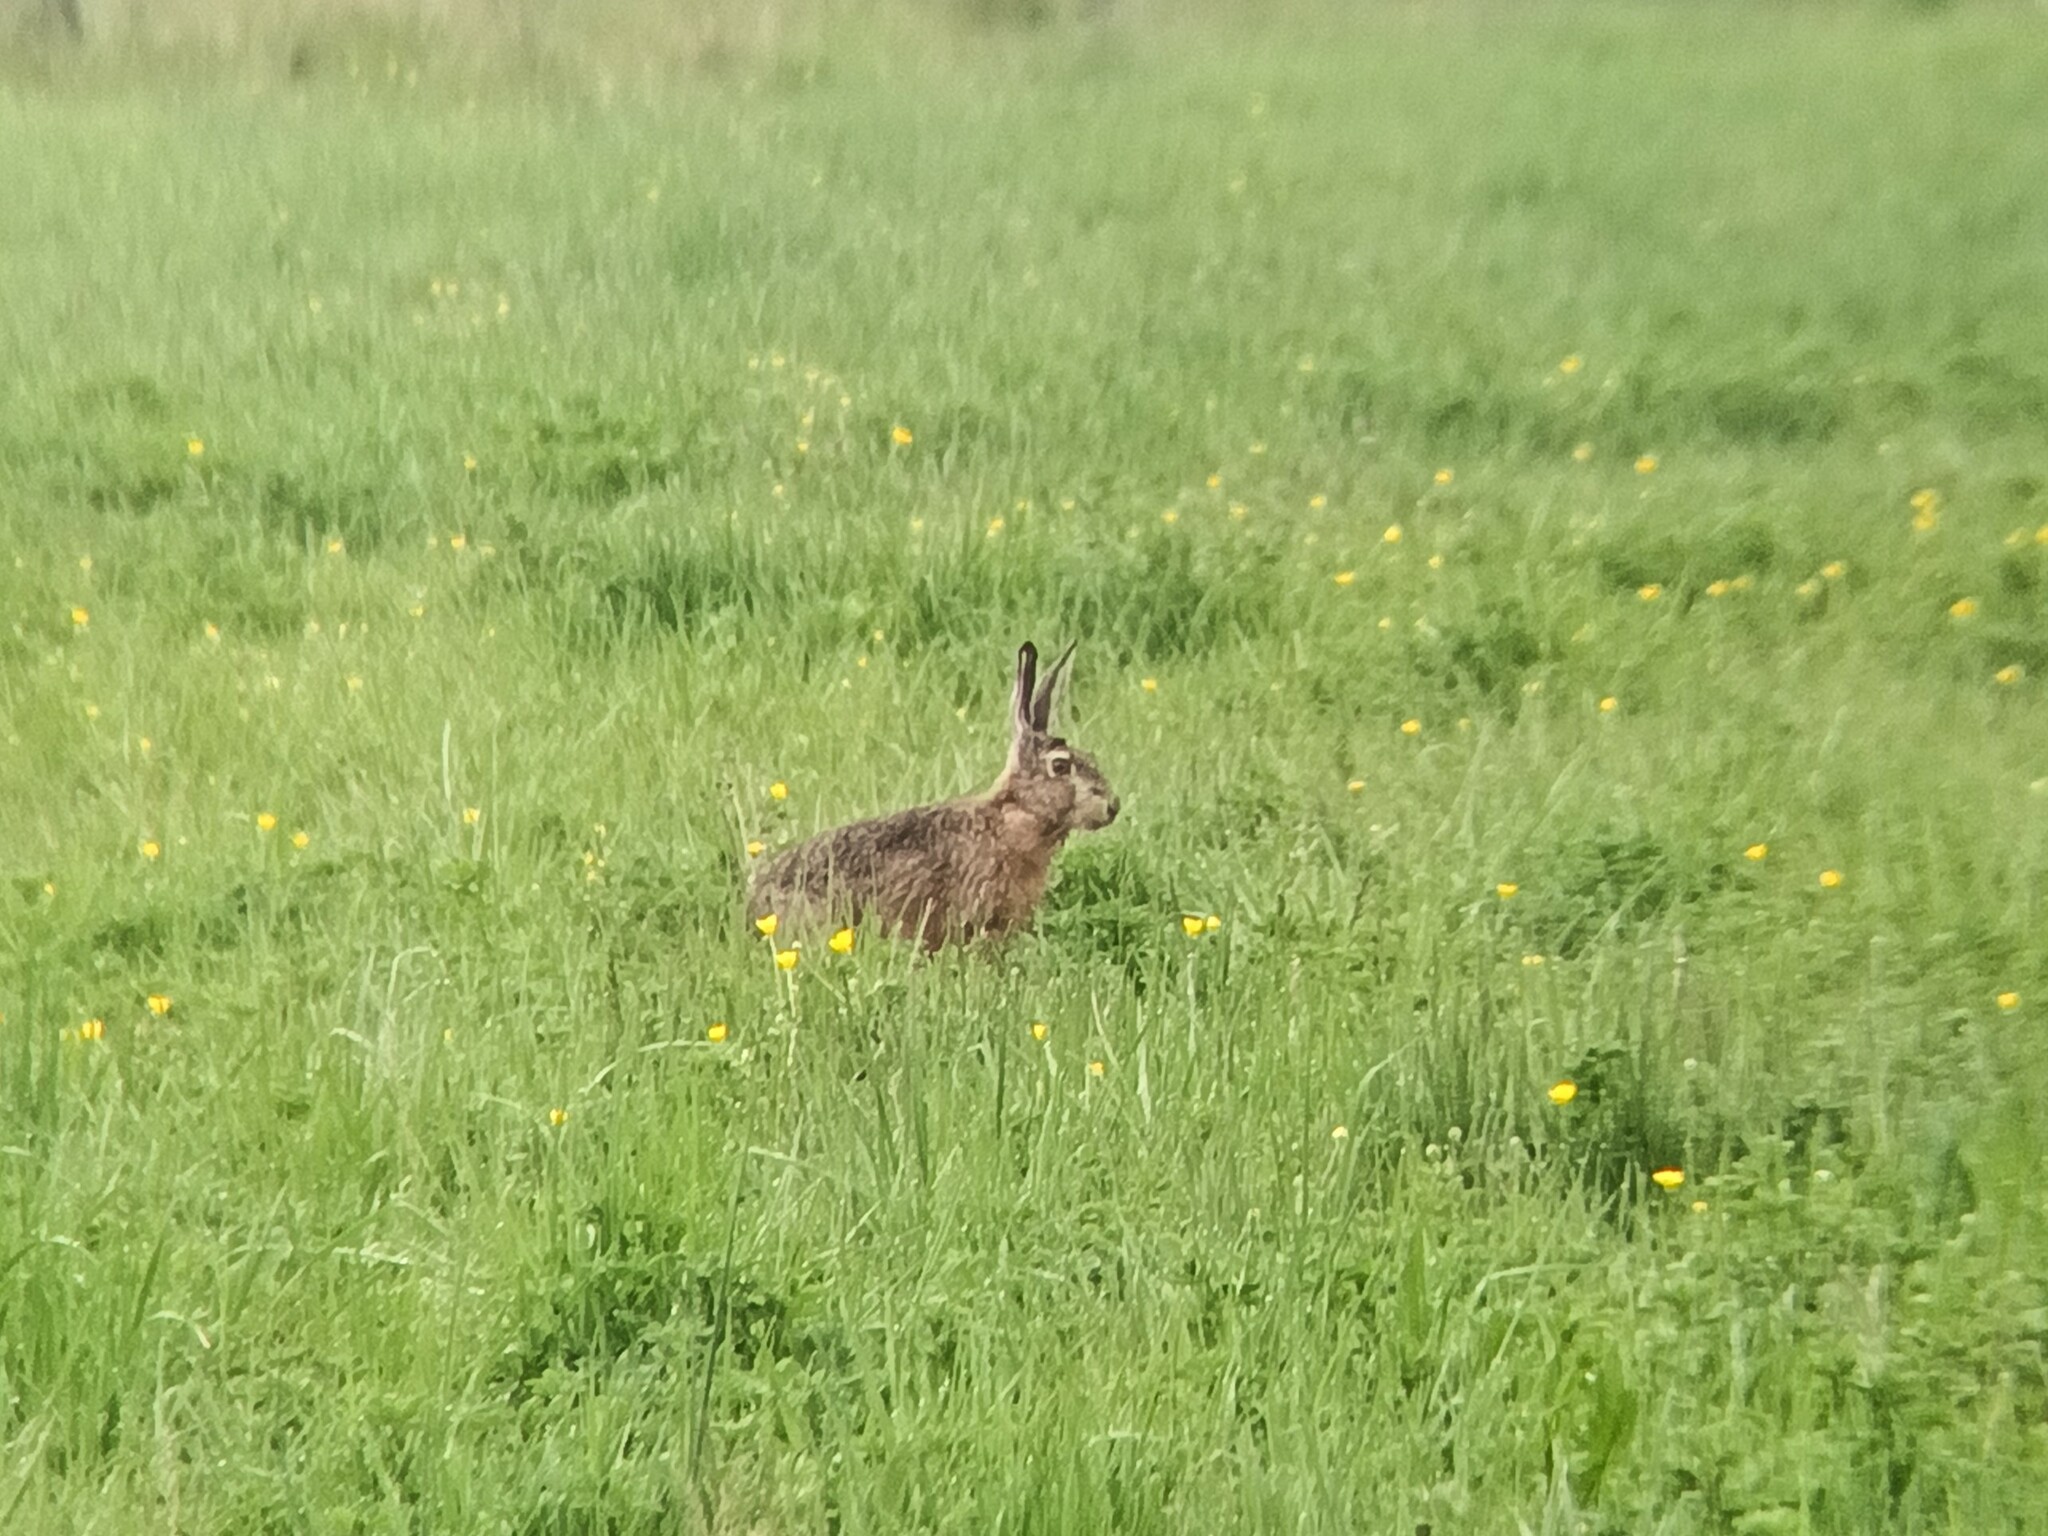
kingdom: Animalia
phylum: Chordata
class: Mammalia
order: Lagomorpha
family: Leporidae
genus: Lepus
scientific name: Lepus europaeus
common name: European hare
